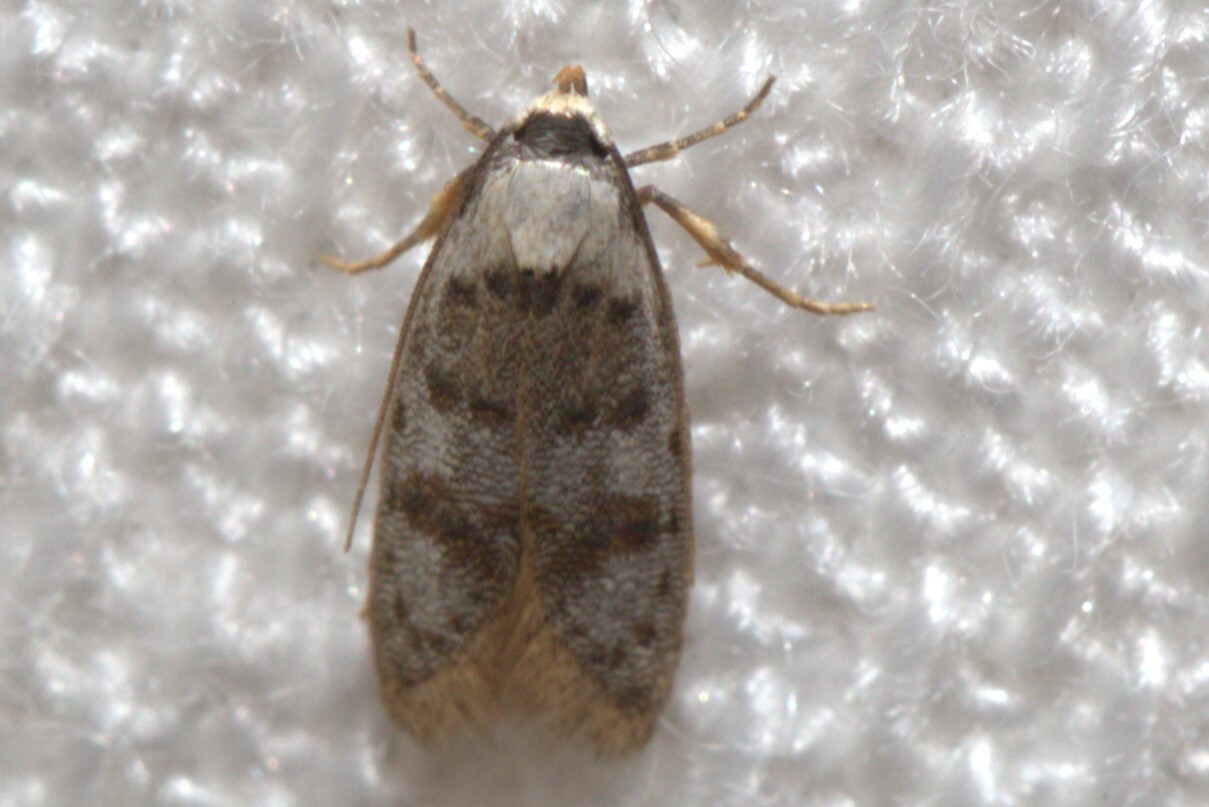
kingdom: Animalia
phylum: Arthropoda
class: Insecta
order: Lepidoptera
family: Oecophoridae
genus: Scatochresis
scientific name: Scatochresis innumera
